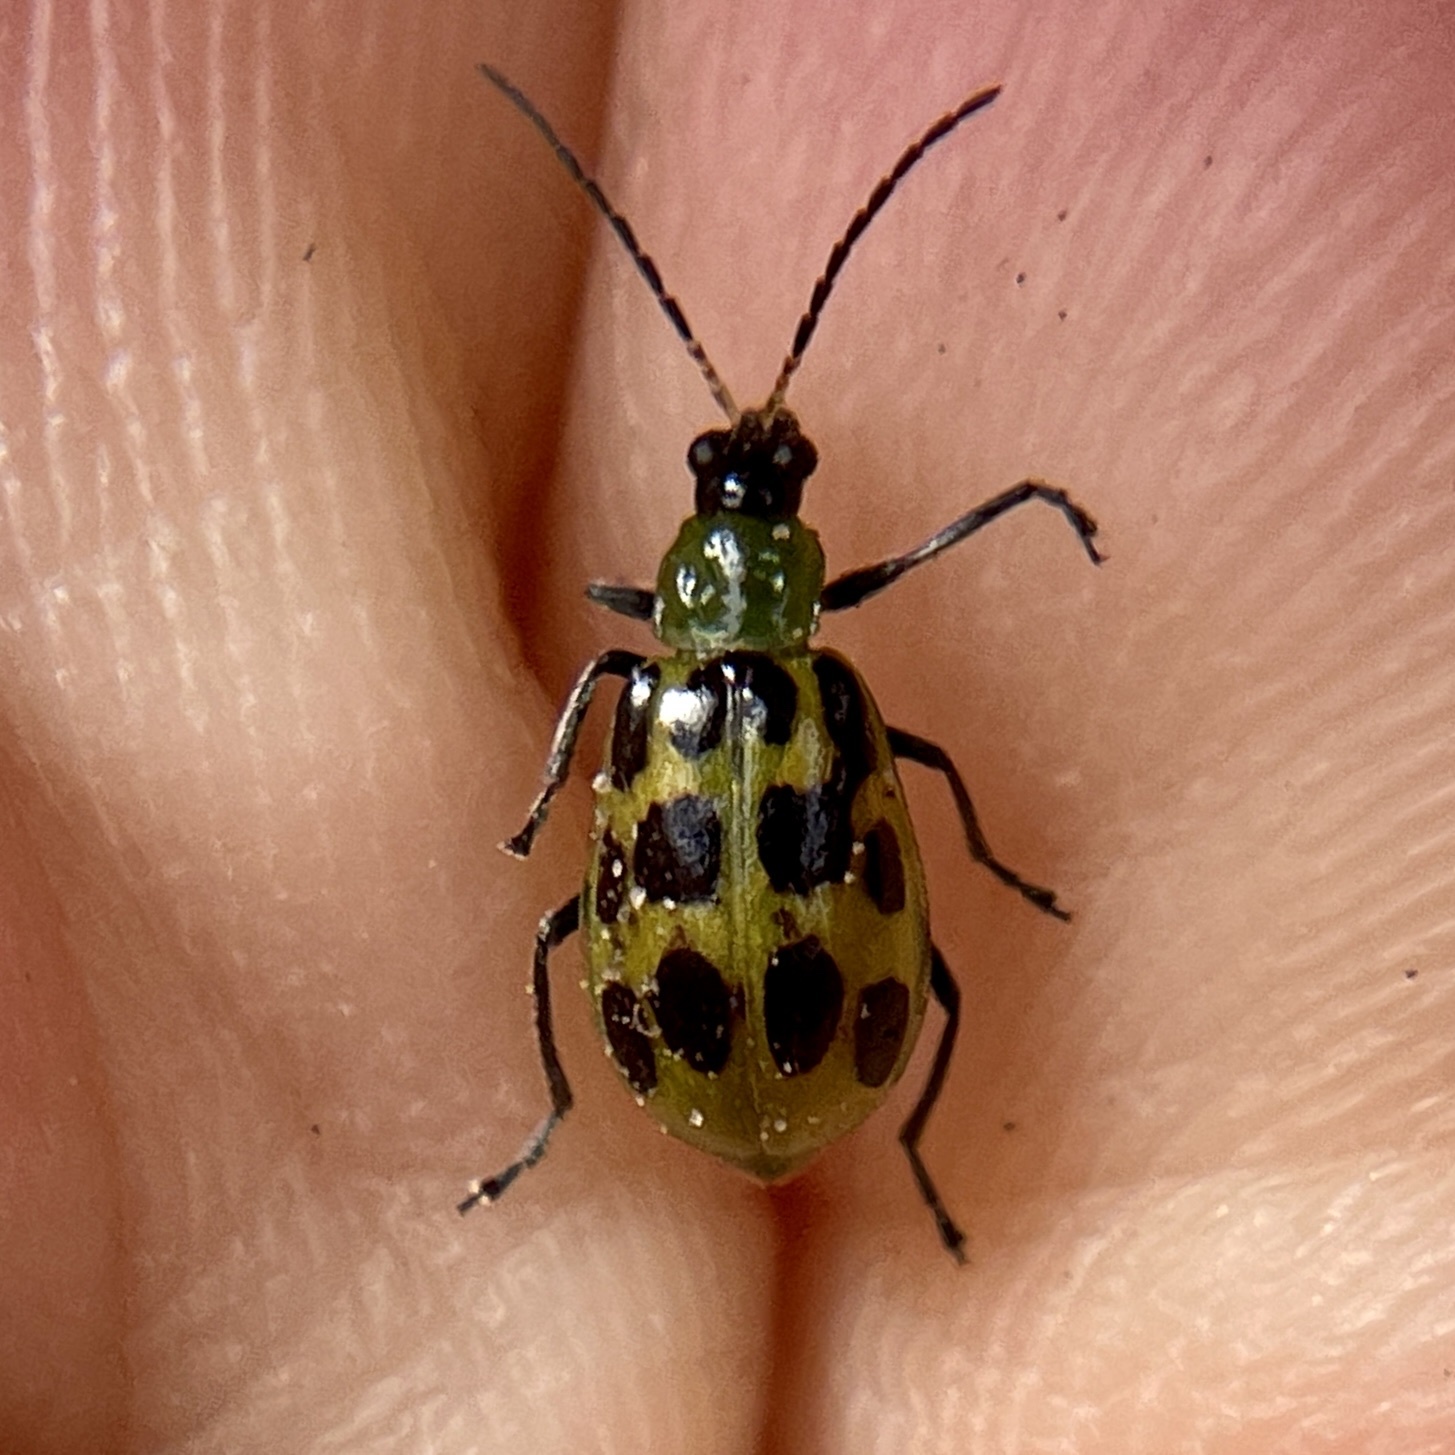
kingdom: Animalia
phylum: Arthropoda
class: Insecta
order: Coleoptera
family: Chrysomelidae
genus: Diabrotica
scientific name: Diabrotica undecimpunctata
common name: Spotted cucumber beetle
